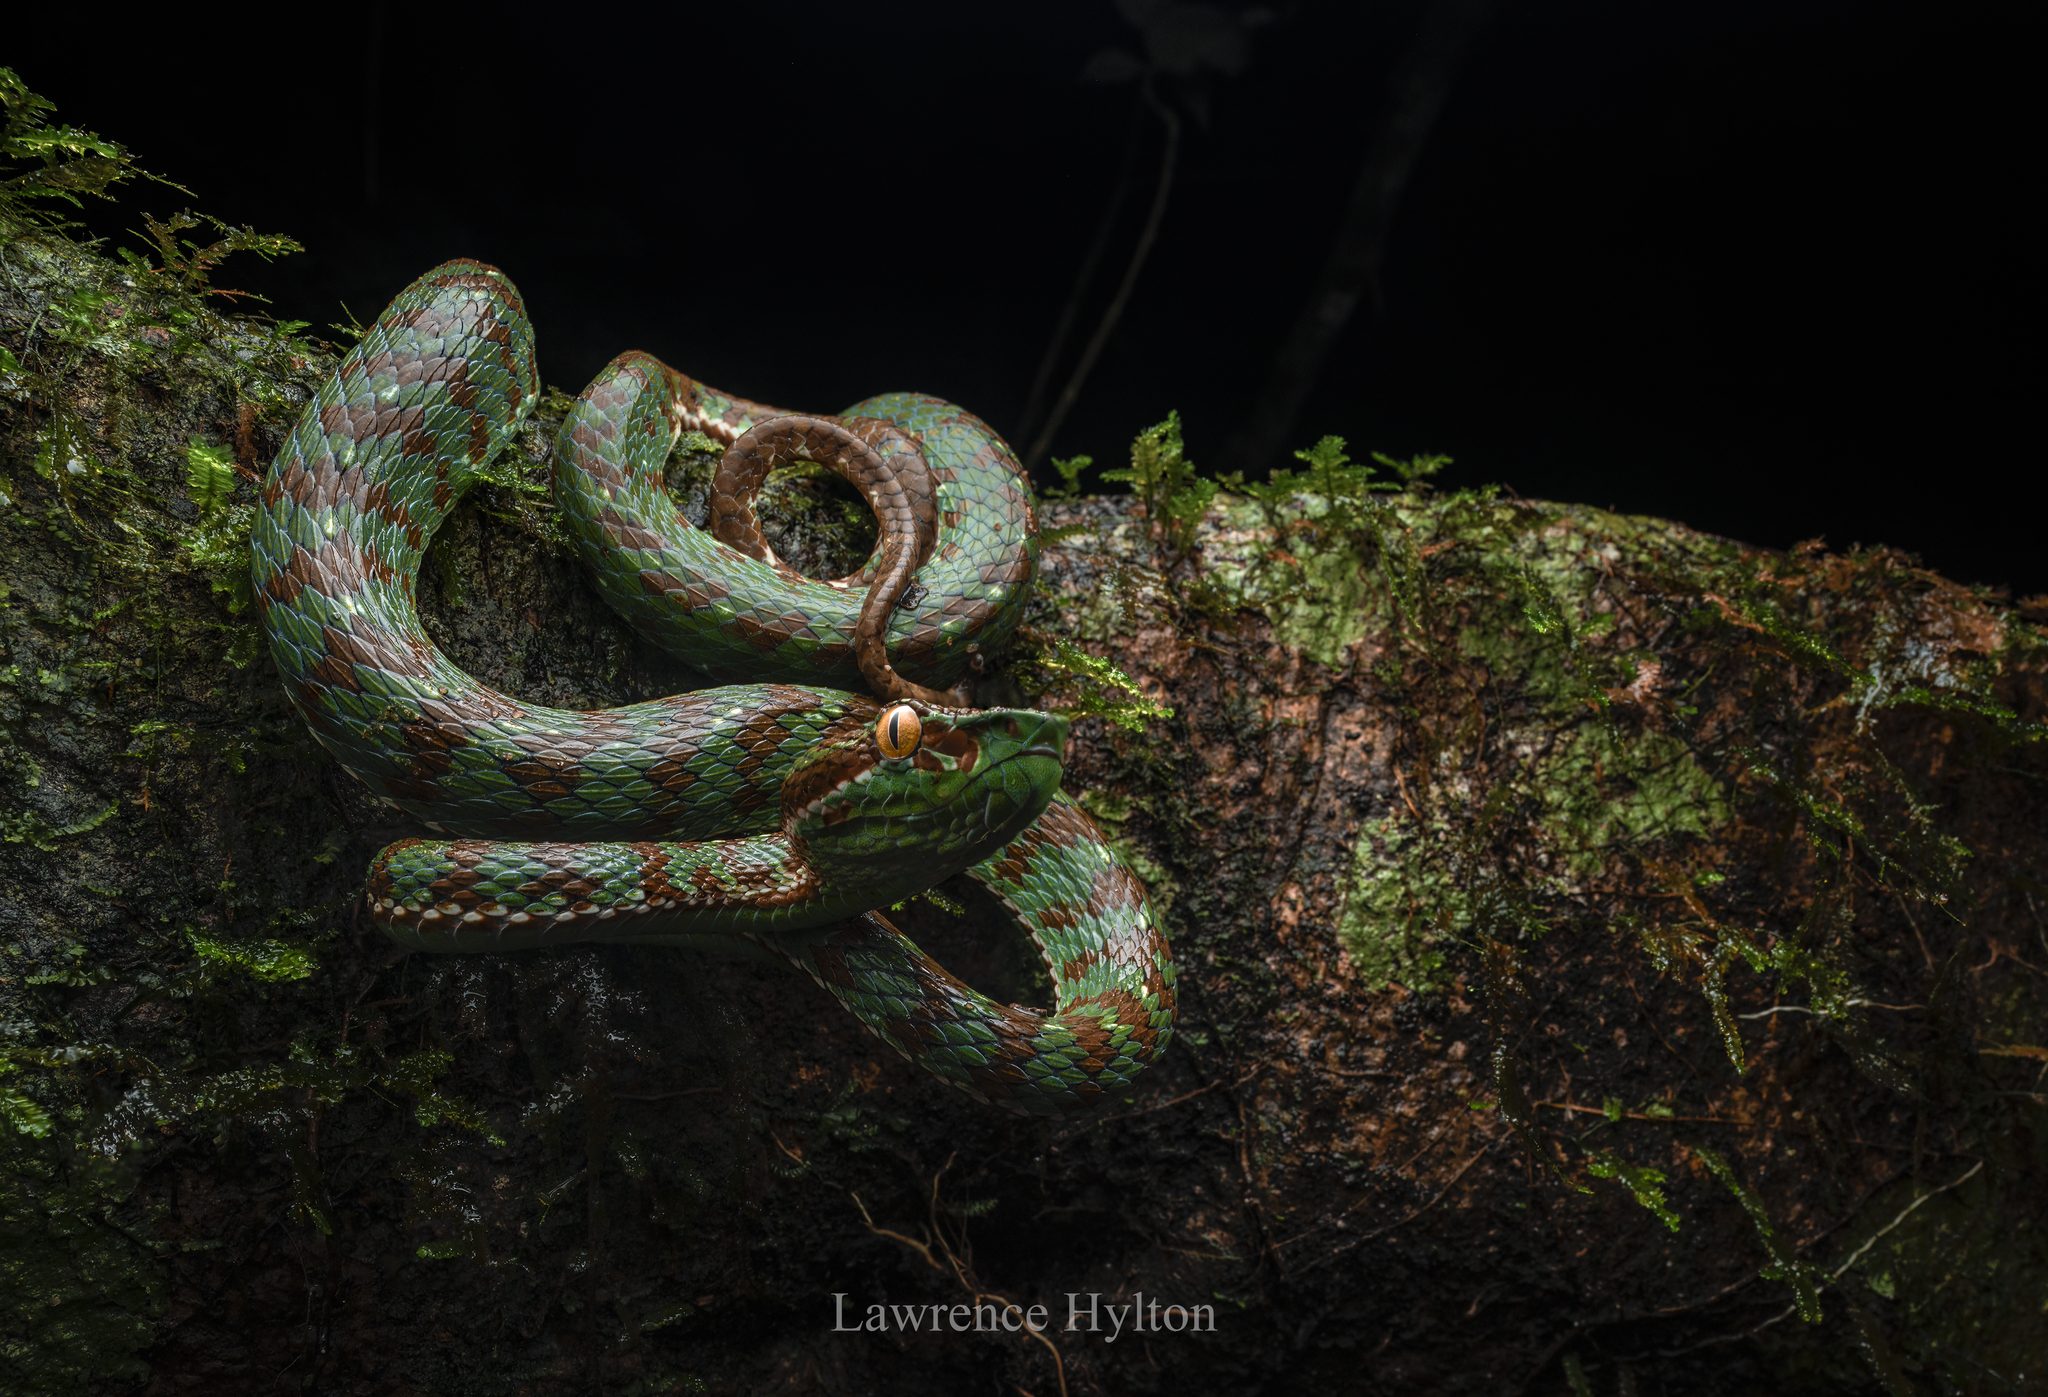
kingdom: Animalia
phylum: Chordata
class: Squamata
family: Viperidae
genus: Trimeresurus
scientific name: Trimeresurus phuketensis
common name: Phuket pitviper
